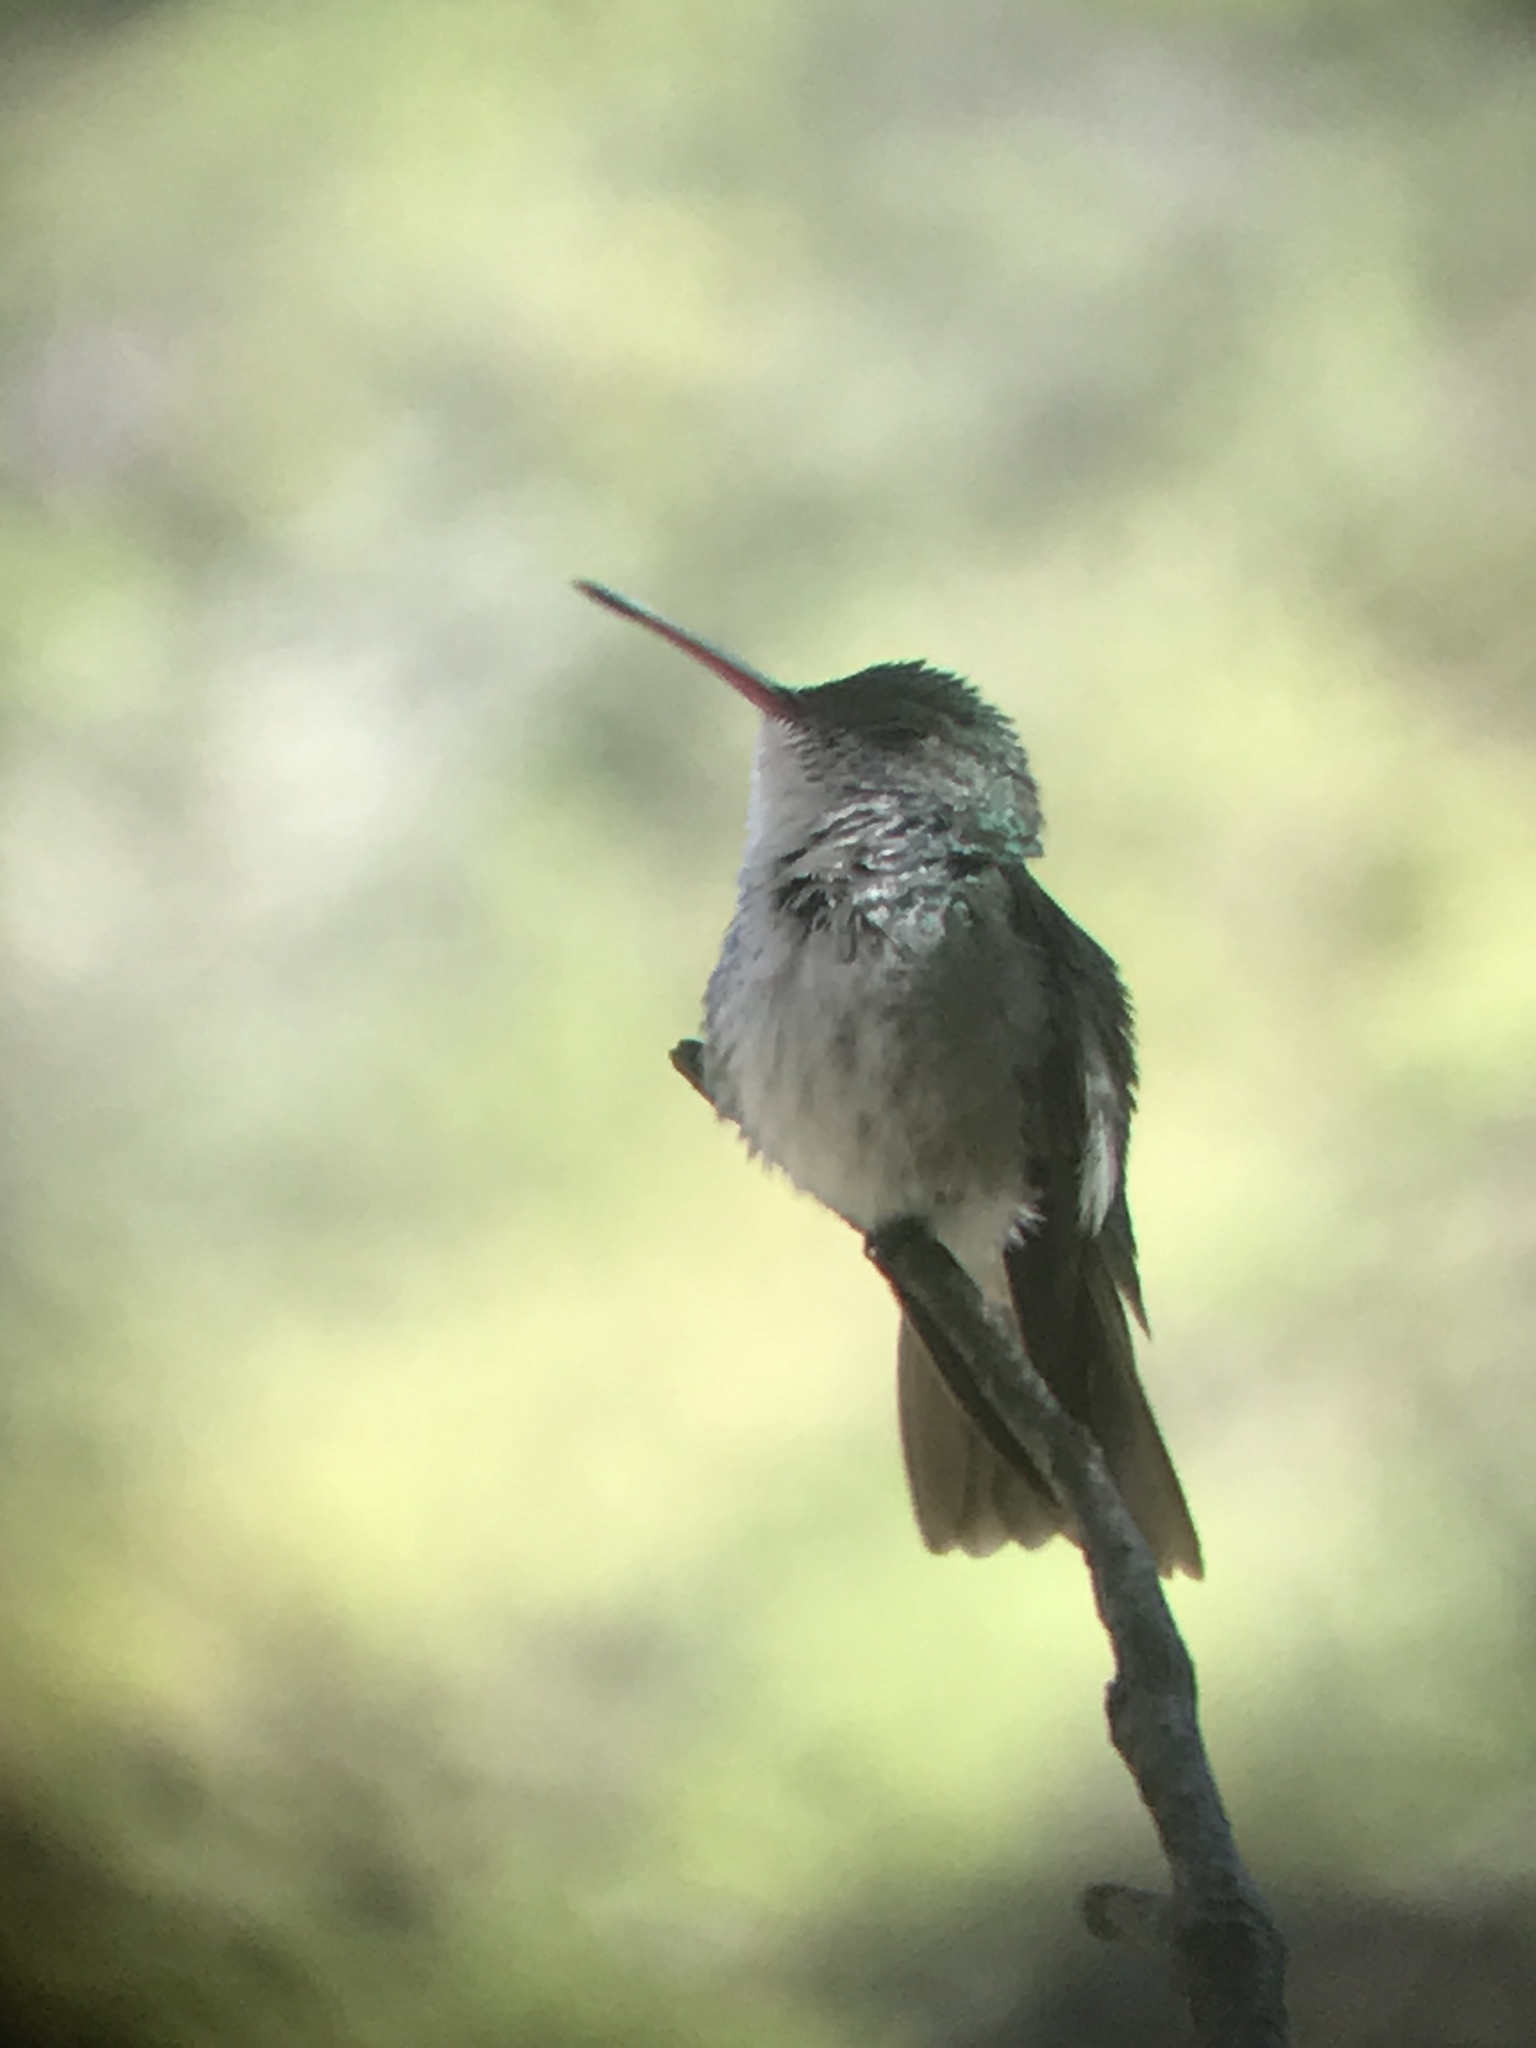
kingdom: Animalia
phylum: Chordata
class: Aves
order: Apodiformes
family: Trochilidae
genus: Elliotomyia
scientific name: Elliotomyia viridicauda
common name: Green-and-white hummingbird
